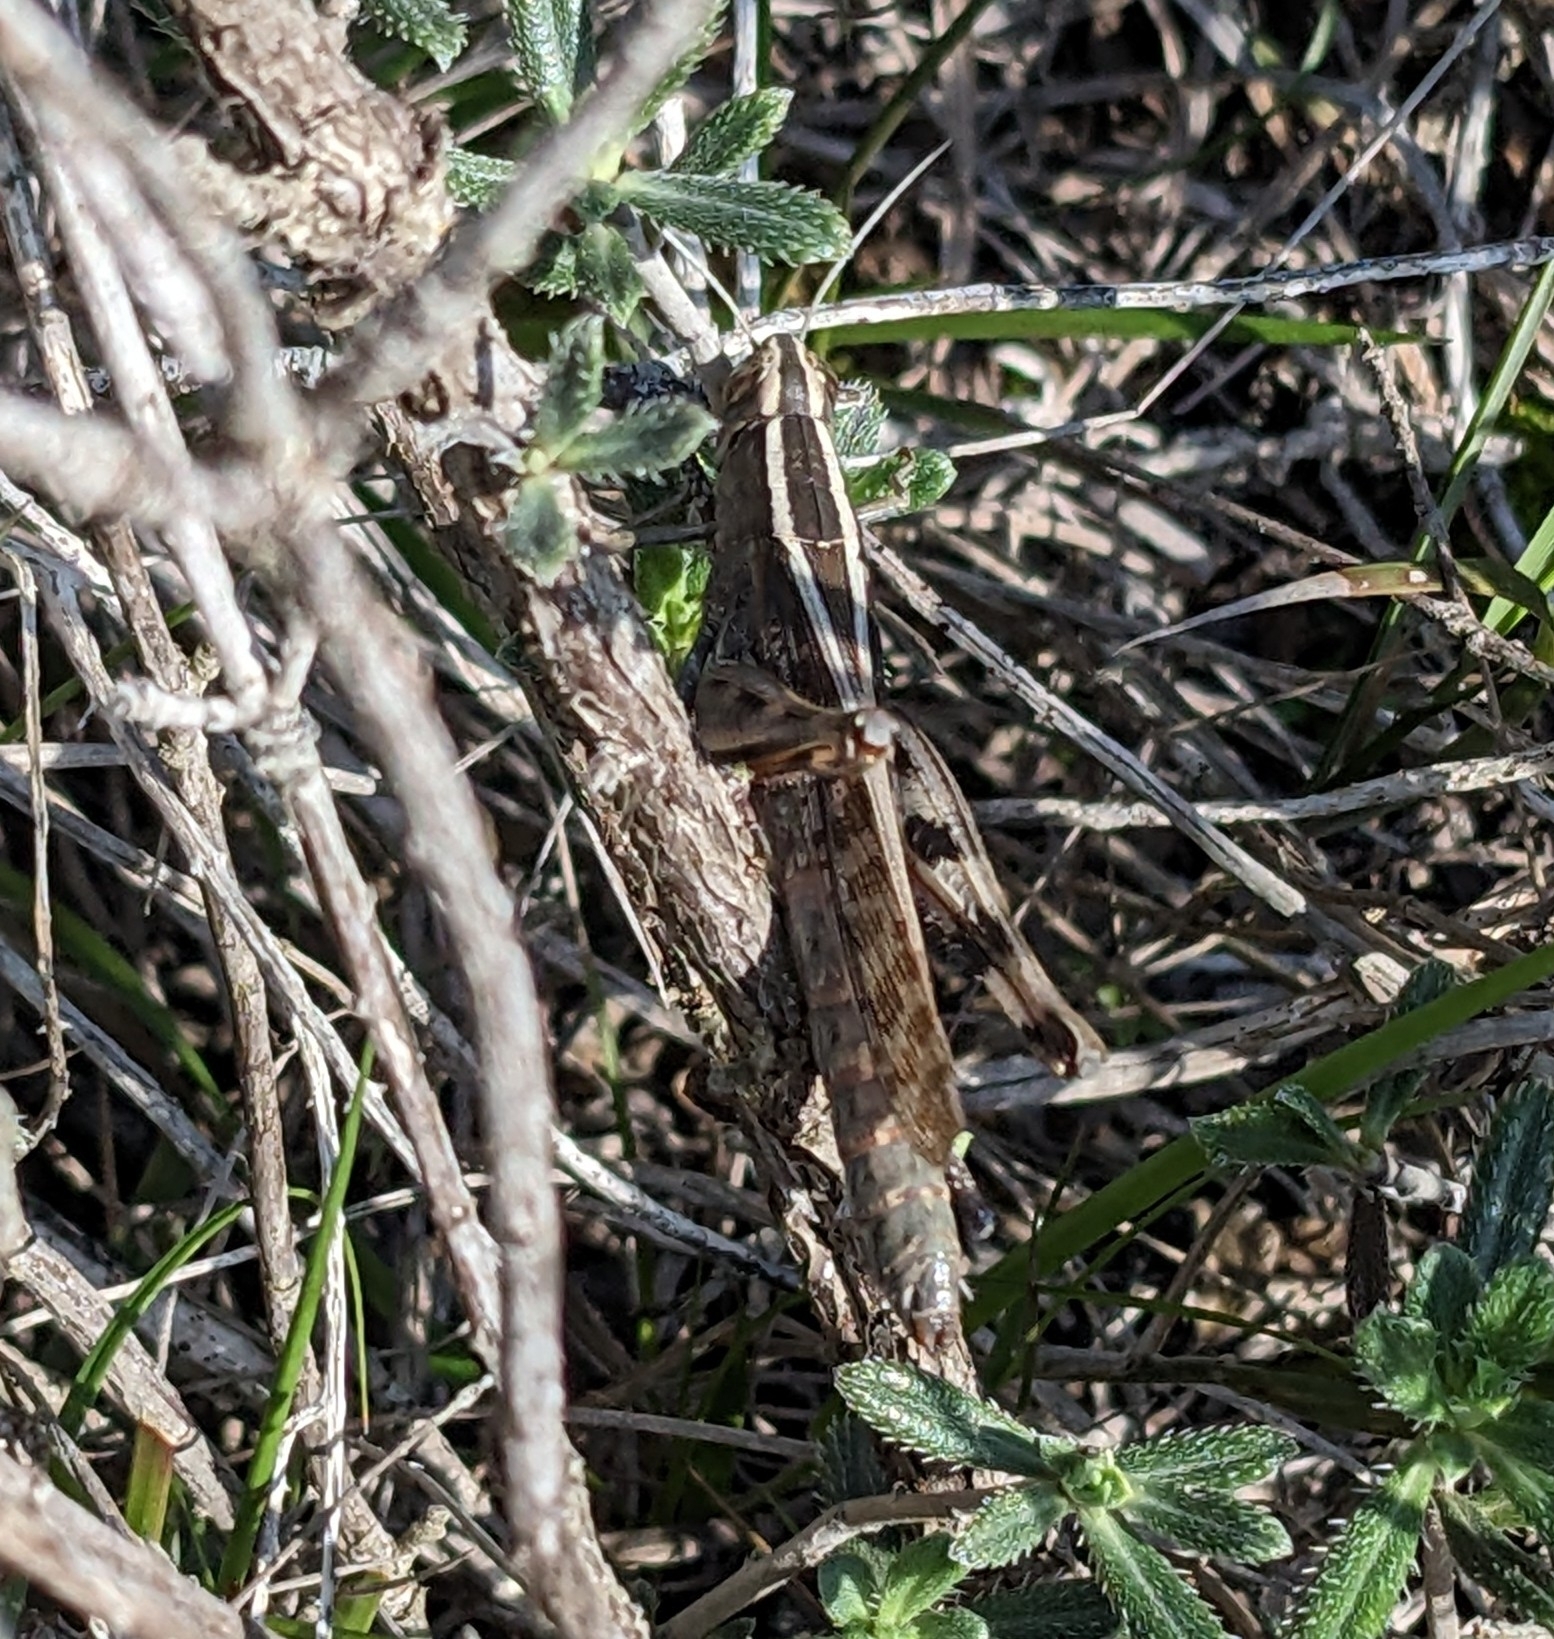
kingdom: Animalia
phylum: Arthropoda
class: Insecta
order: Orthoptera
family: Acrididae
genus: Heteracris
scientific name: Heteracris littoralis
